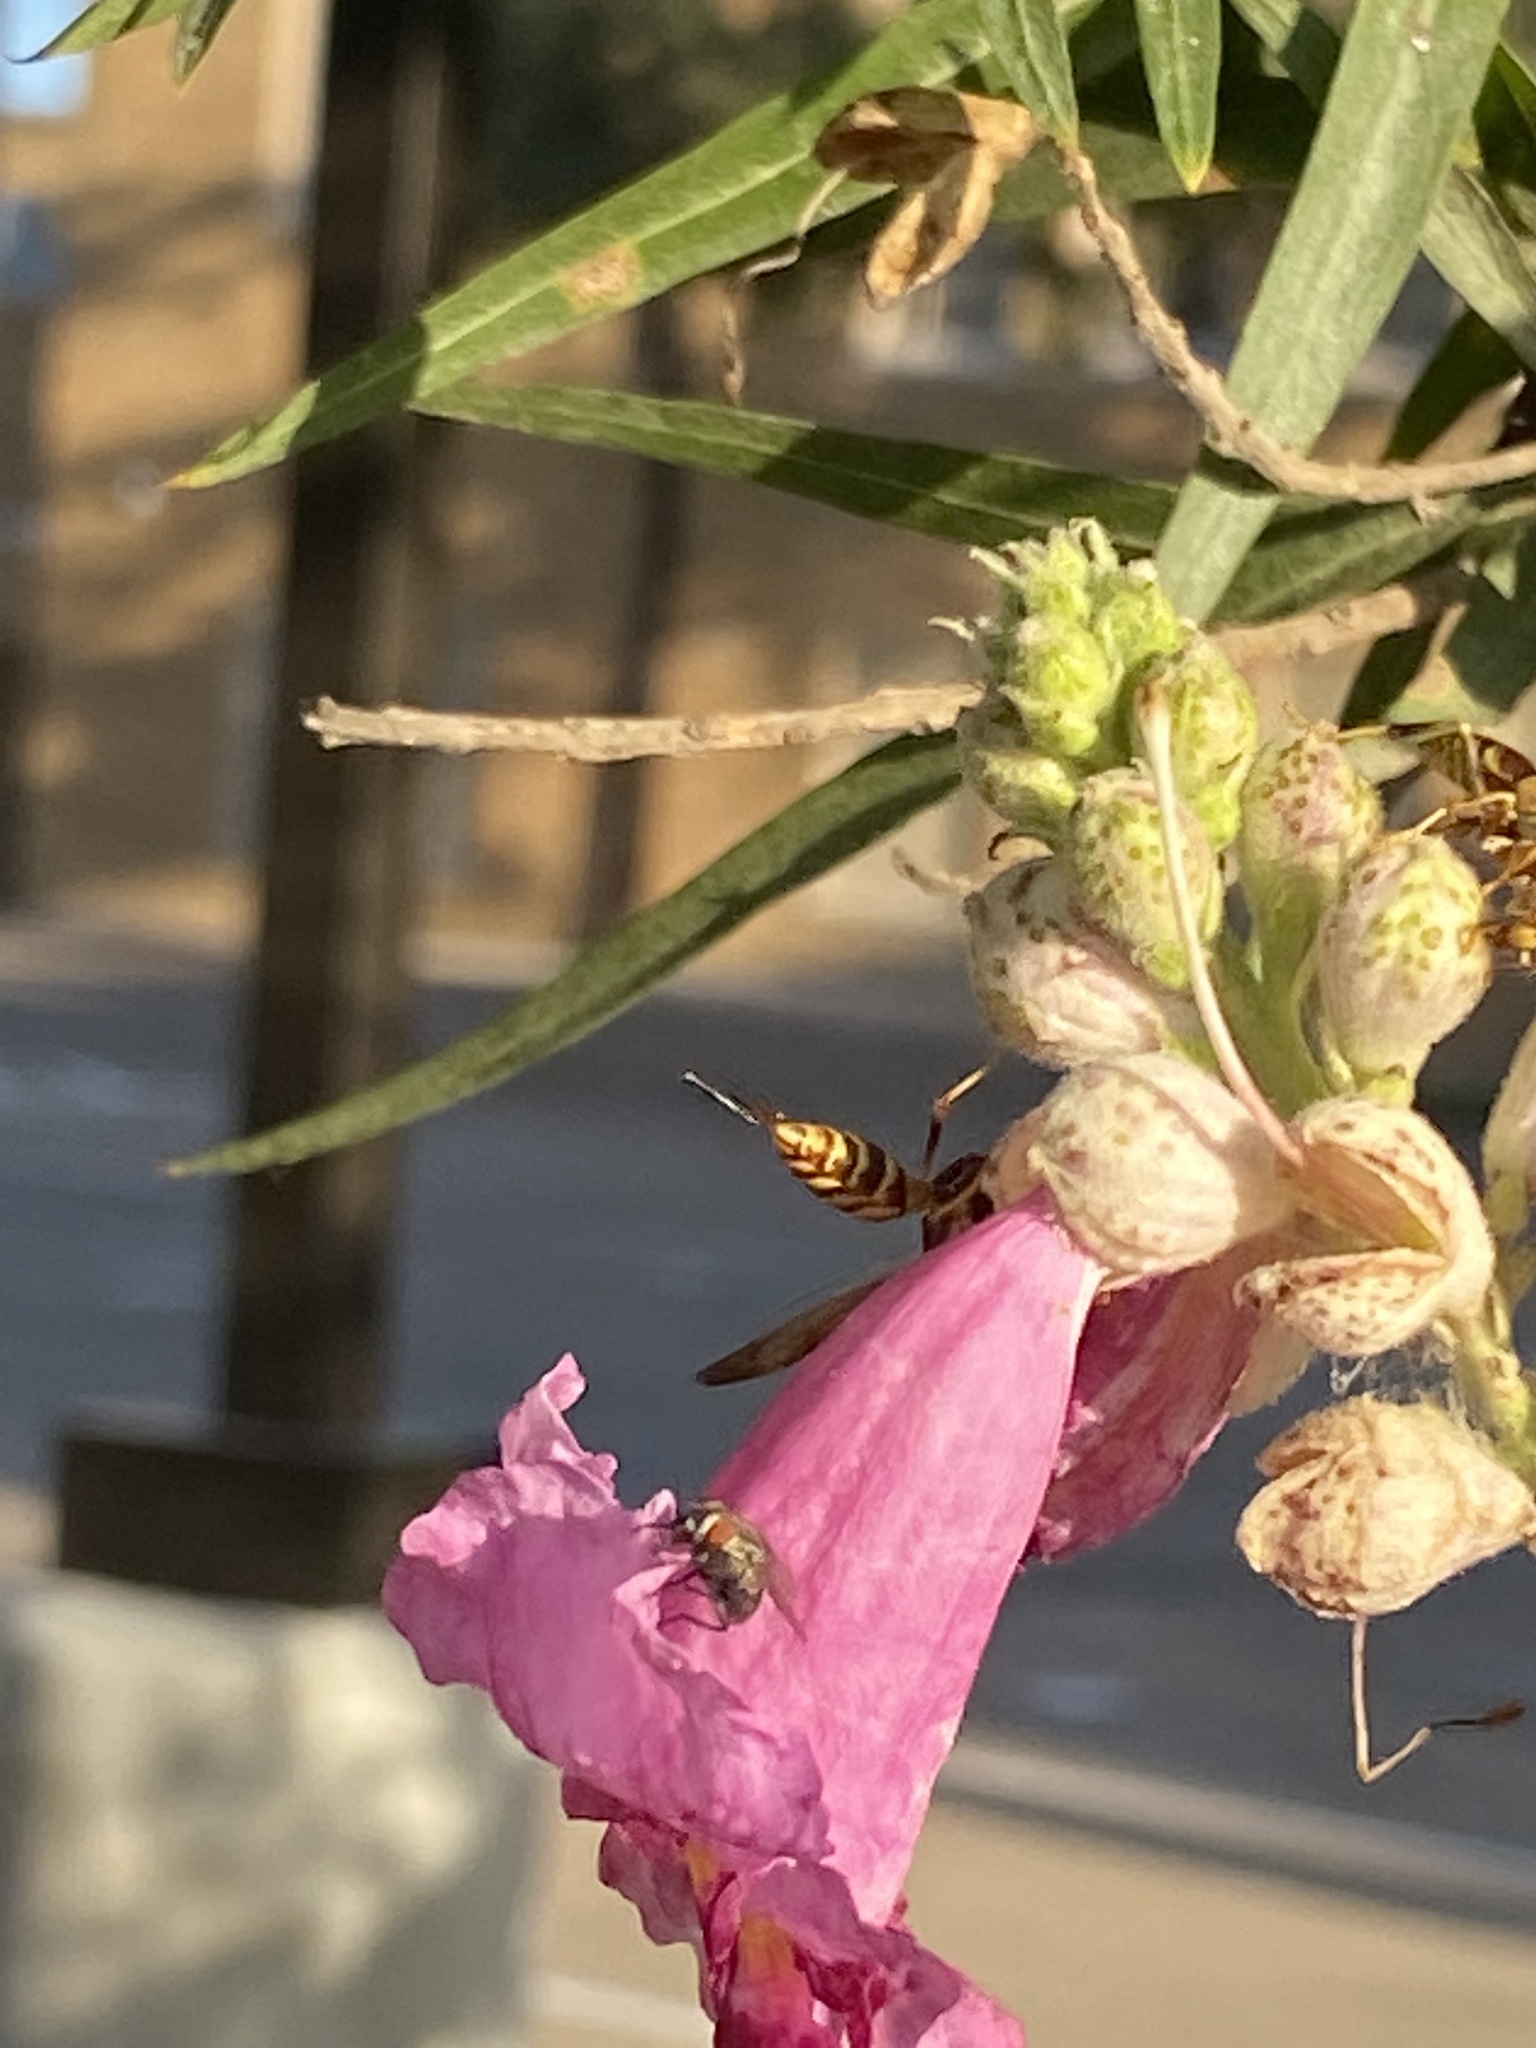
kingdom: Animalia
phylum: Arthropoda
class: Insecta
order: Hymenoptera
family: Eumenidae
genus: Polistes
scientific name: Polistes exclamans
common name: Paper wasp
